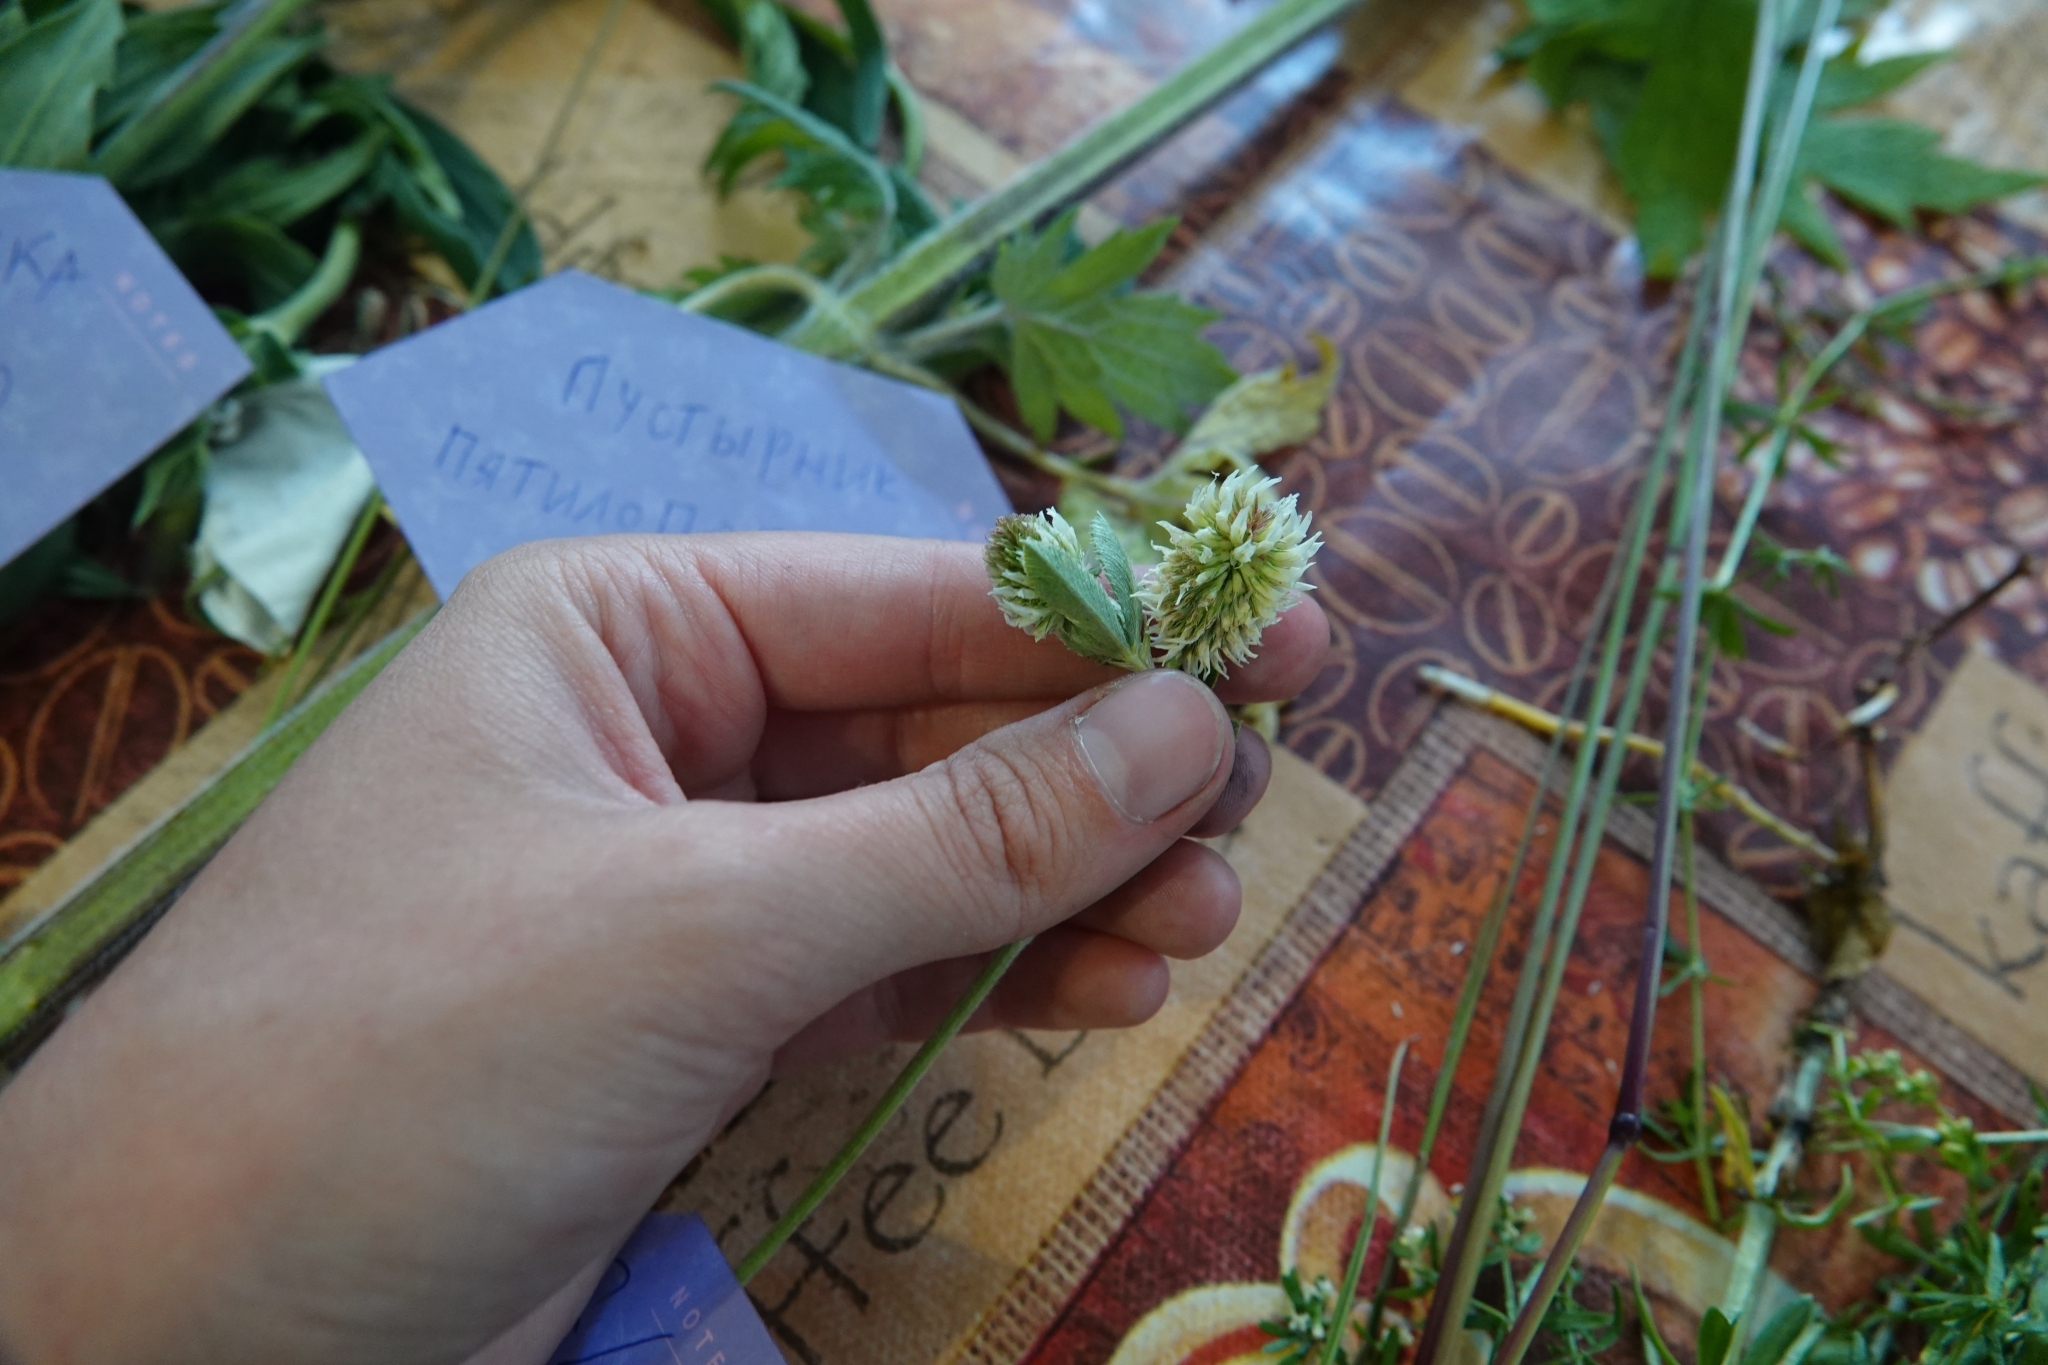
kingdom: Plantae
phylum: Tracheophyta
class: Magnoliopsida
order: Fabales
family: Fabaceae
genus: Trifolium
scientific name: Trifolium montanum
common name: Mountain clover
